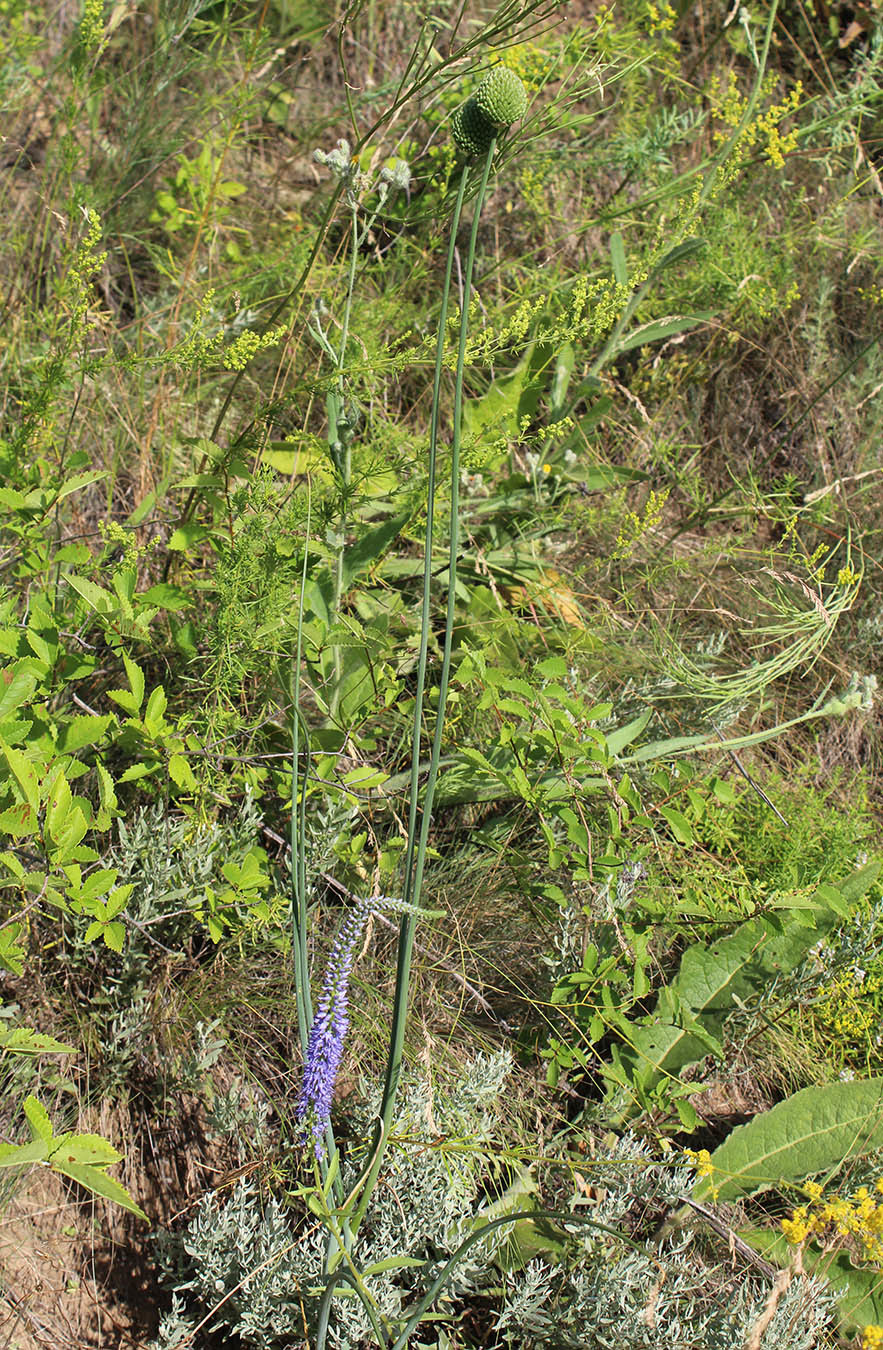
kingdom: Plantae
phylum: Tracheophyta
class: Liliopsida
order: Asparagales
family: Amaryllidaceae
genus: Allium
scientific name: Allium sphaerocephalon
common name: Round-headed leek
